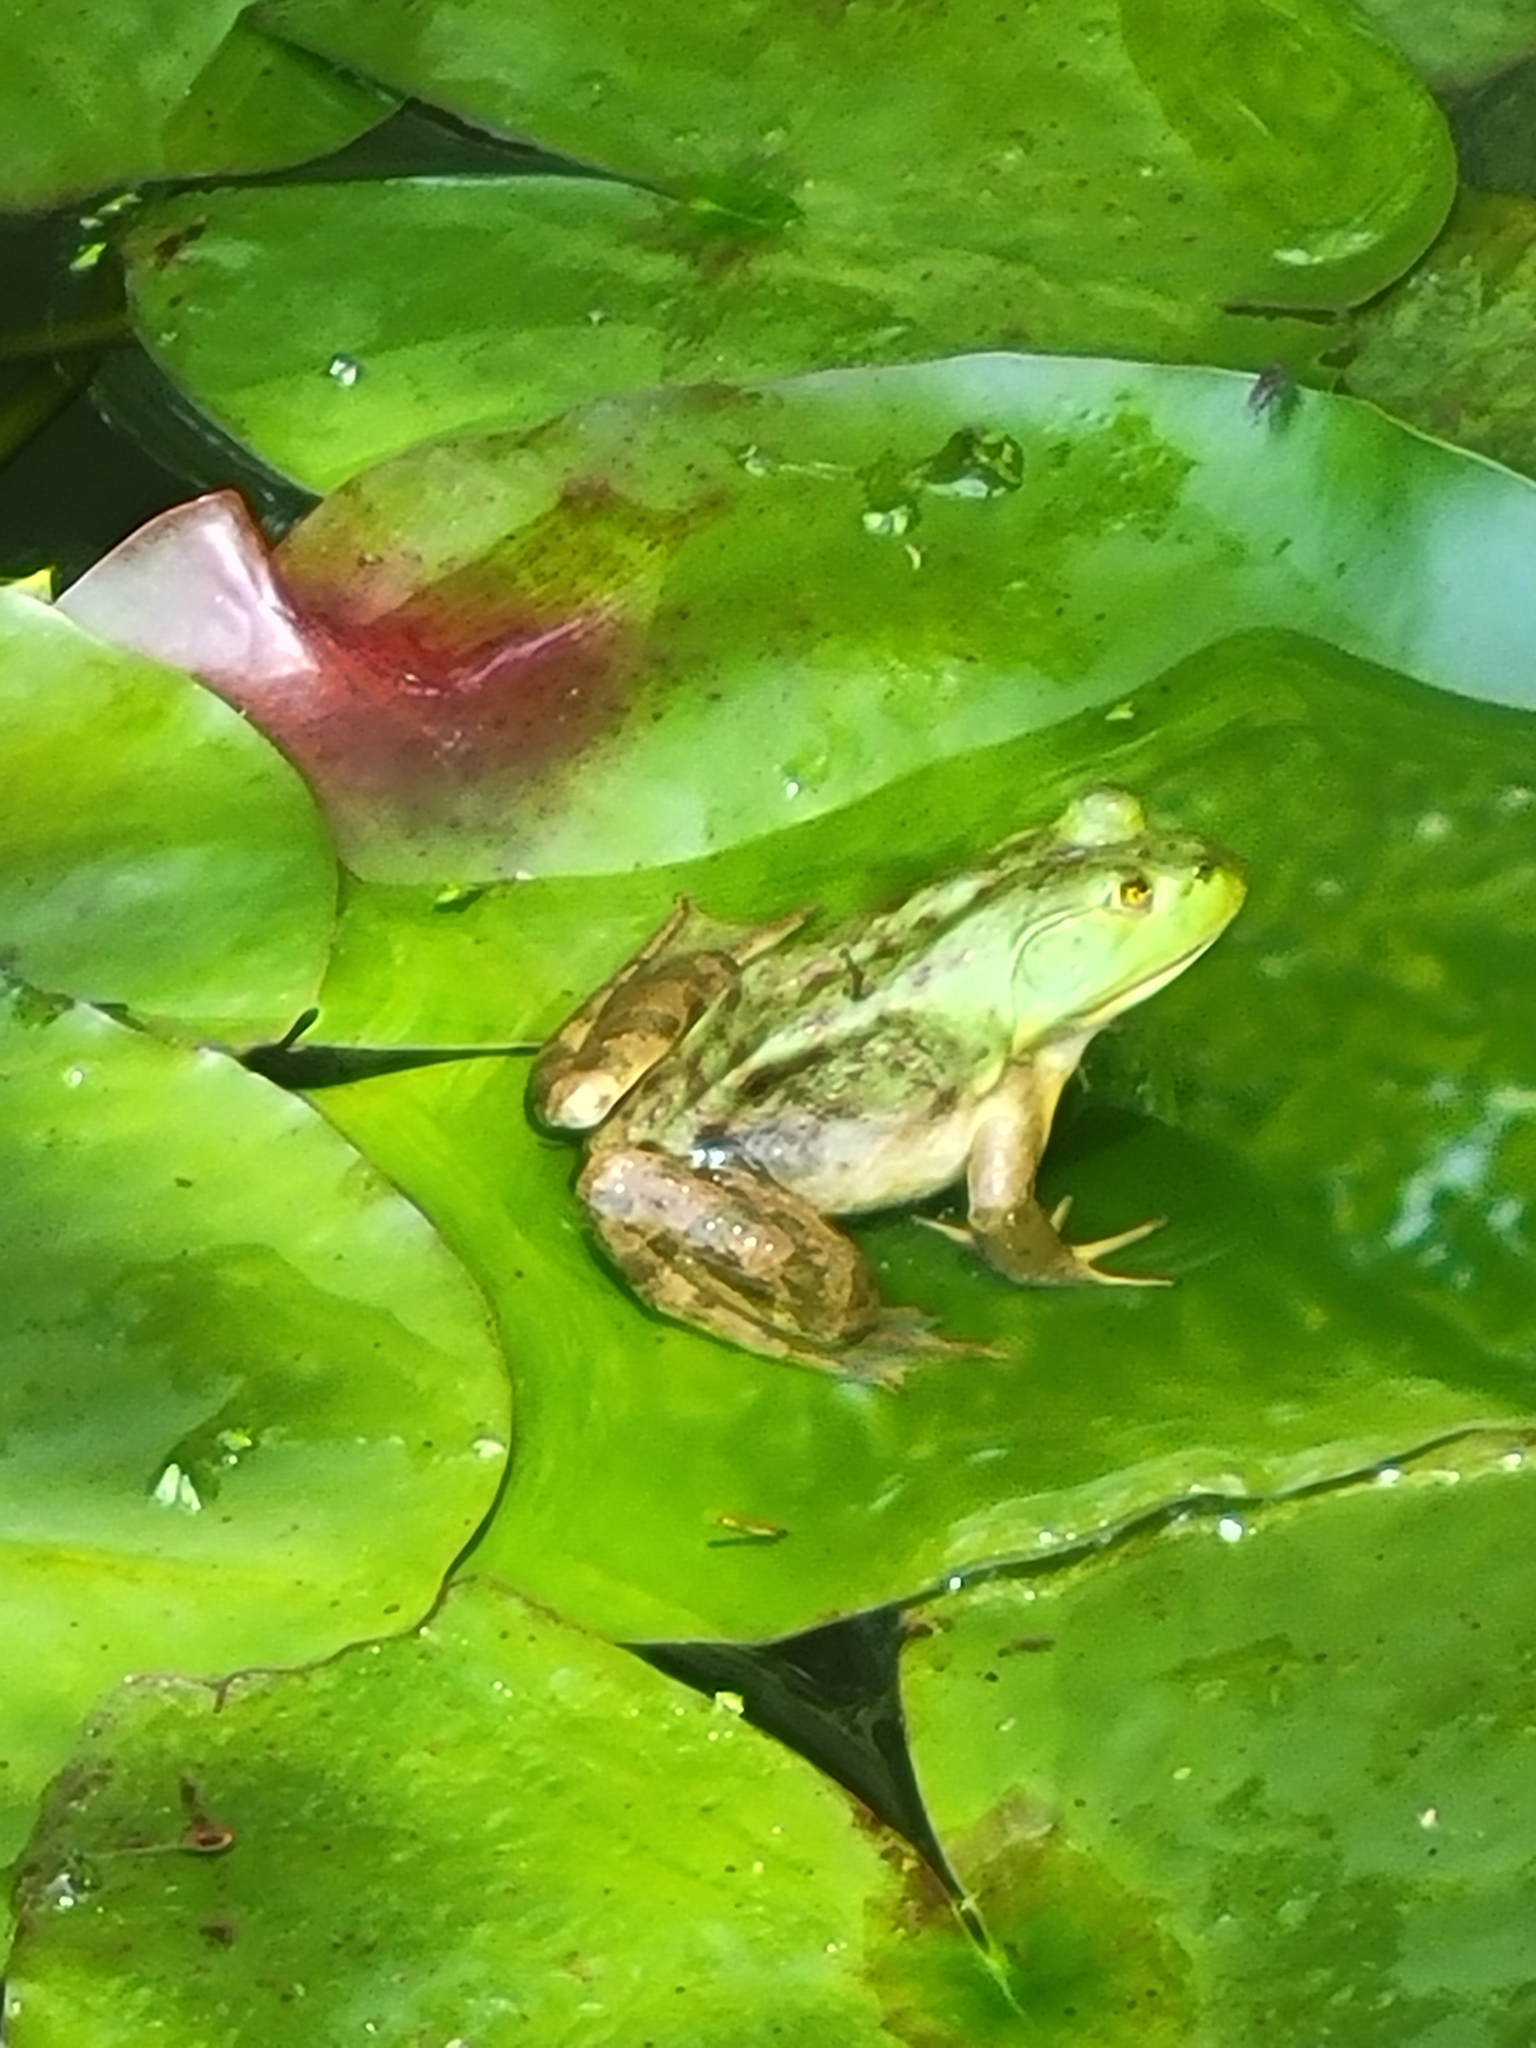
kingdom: Animalia
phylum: Chordata
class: Amphibia
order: Anura
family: Ranidae
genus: Lithobates
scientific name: Lithobates catesbeianus
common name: American bullfrog
